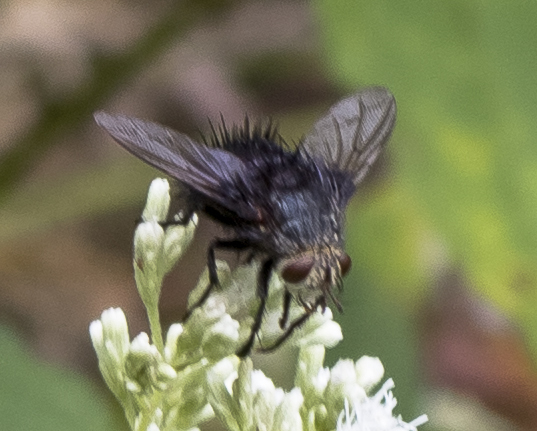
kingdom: Animalia
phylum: Arthropoda
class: Insecta
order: Diptera
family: Tachinidae
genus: Juriniopsis
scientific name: Juriniopsis adusta
